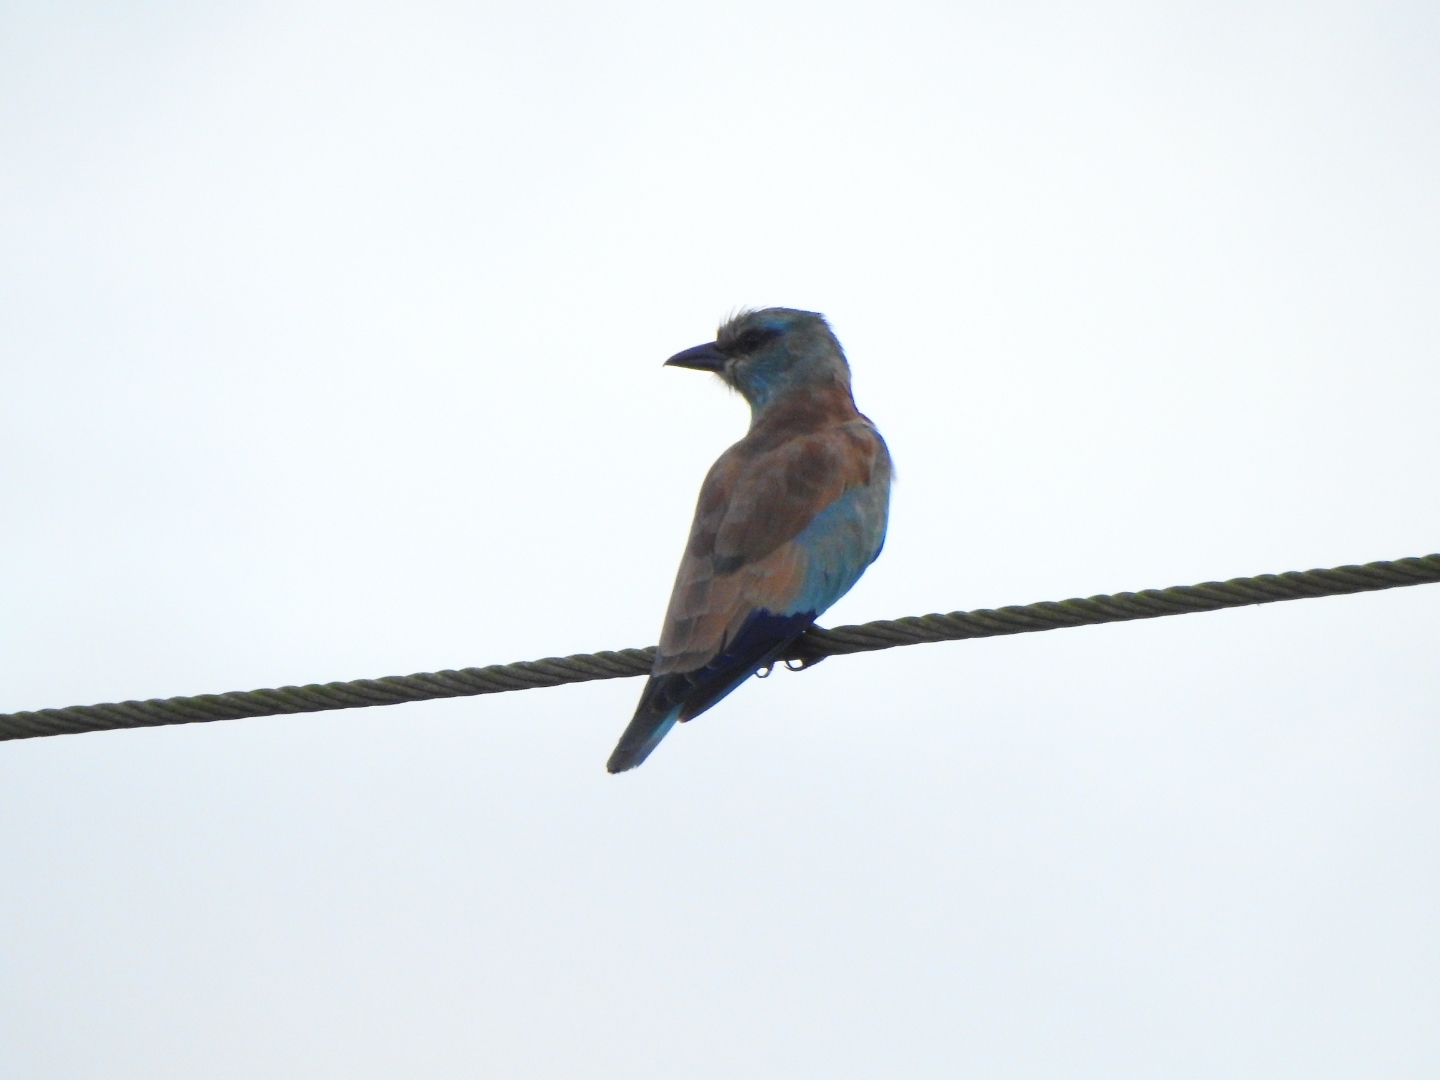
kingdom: Animalia
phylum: Chordata
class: Aves
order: Coraciiformes
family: Coraciidae
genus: Coracias
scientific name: Coracias garrulus
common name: European roller
